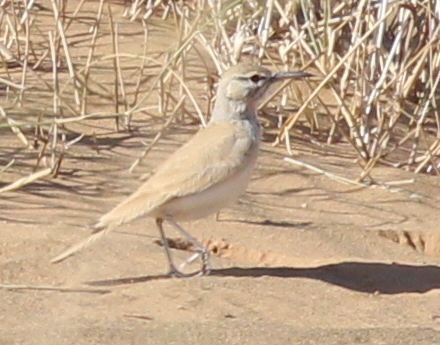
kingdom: Animalia
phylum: Chordata
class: Aves
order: Passeriformes
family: Alaudidae
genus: Alaemon
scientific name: Alaemon alaudipes
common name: Greater hoopoe-lark
